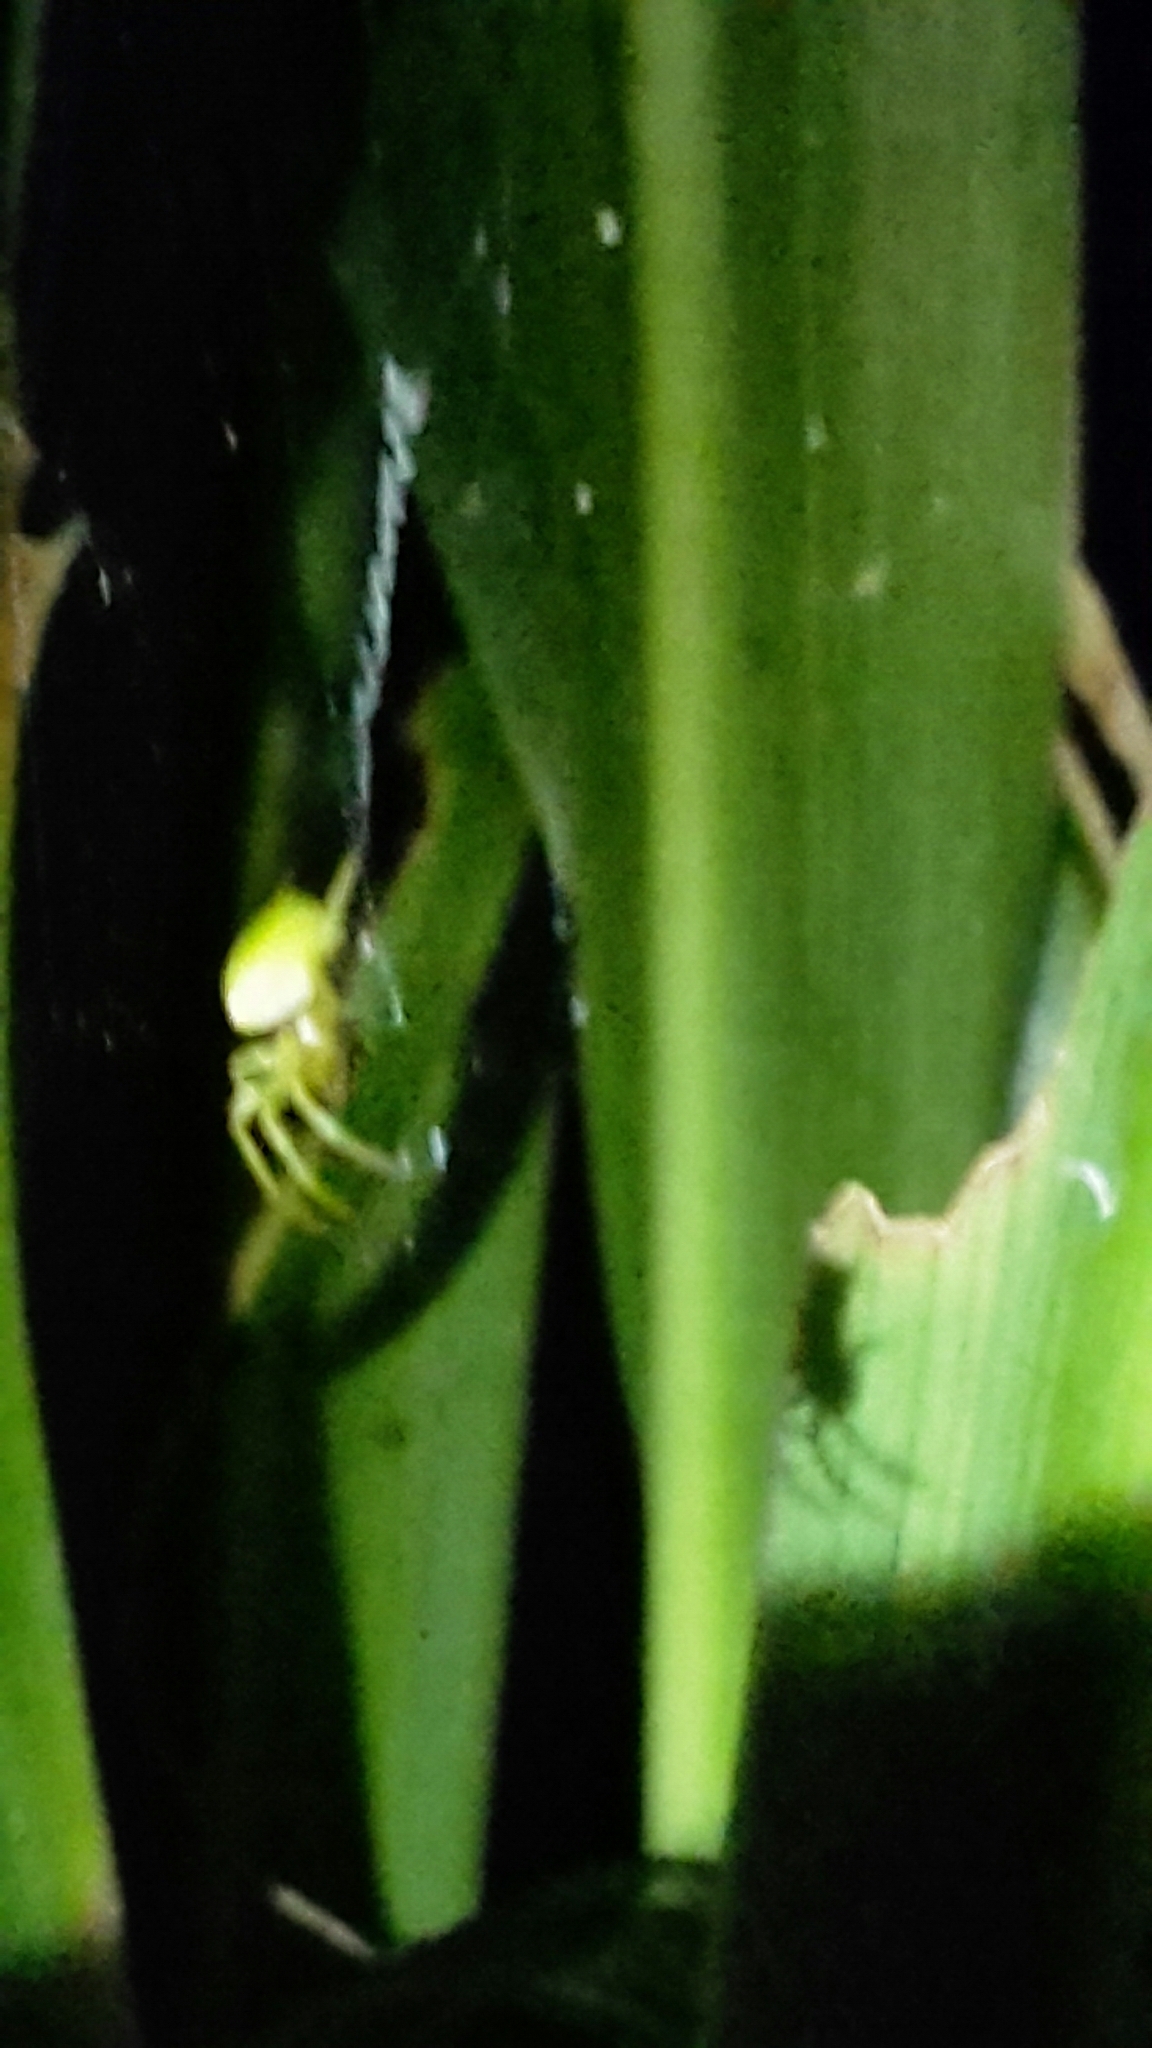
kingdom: Animalia
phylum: Arthropoda
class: Arachnida
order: Araneae
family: Araneidae
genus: Colaranea
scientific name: Colaranea viriditas
